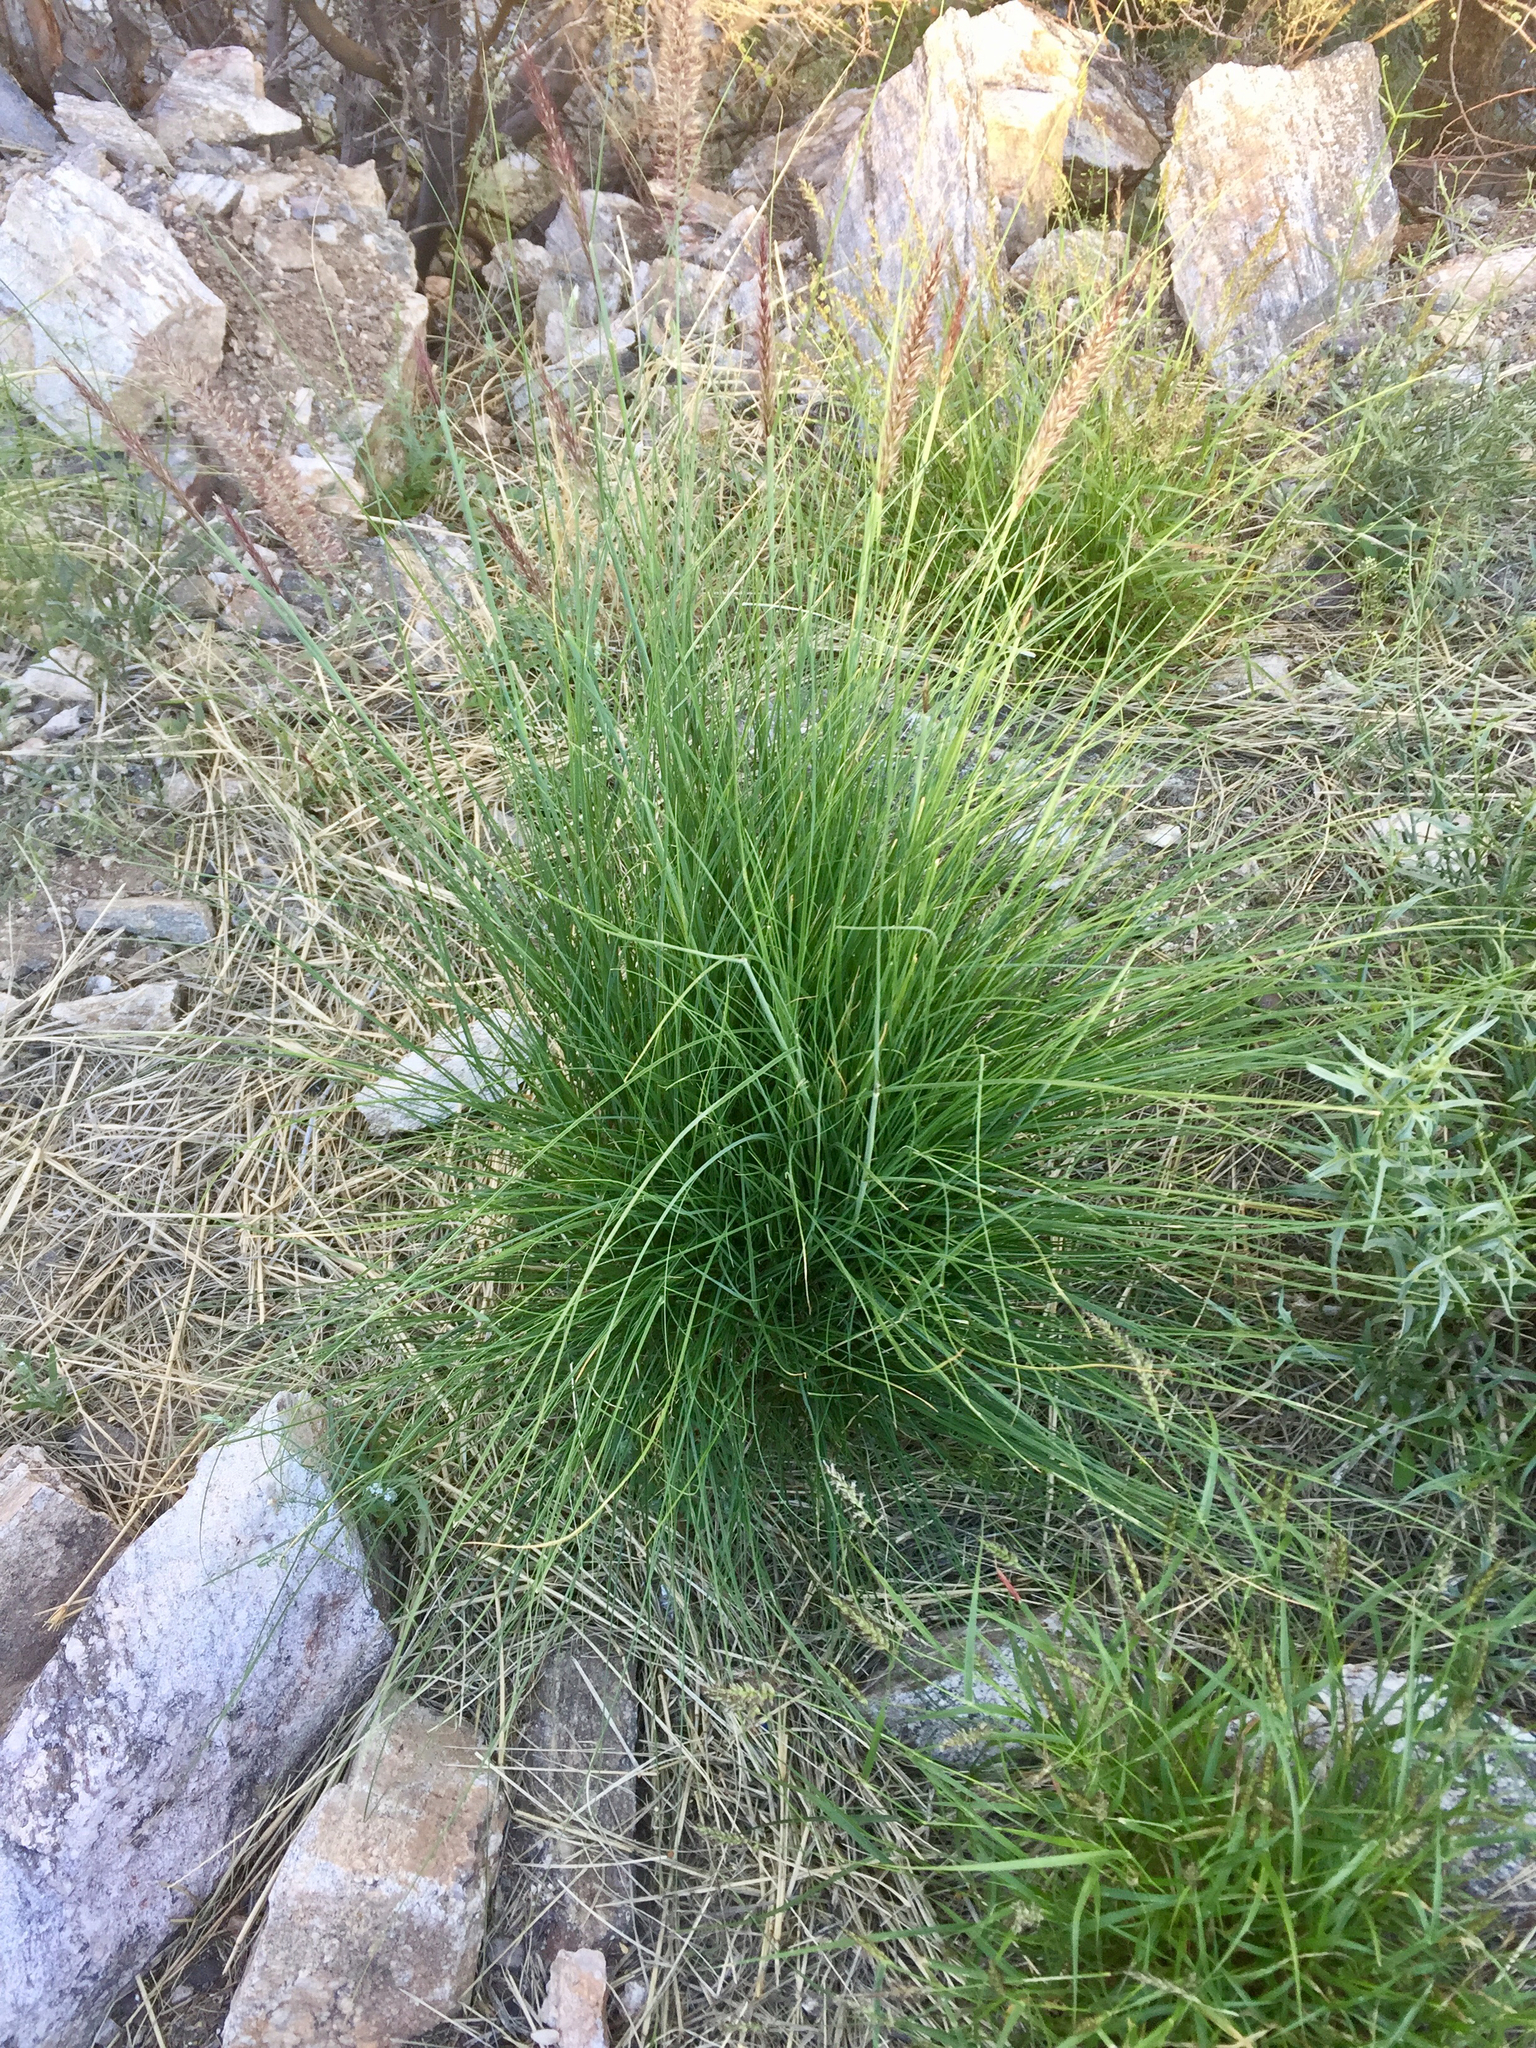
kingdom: Plantae
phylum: Tracheophyta
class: Liliopsida
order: Poales
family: Poaceae
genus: Cenchrus
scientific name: Cenchrus setaceus
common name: Crimson fountaingrass
